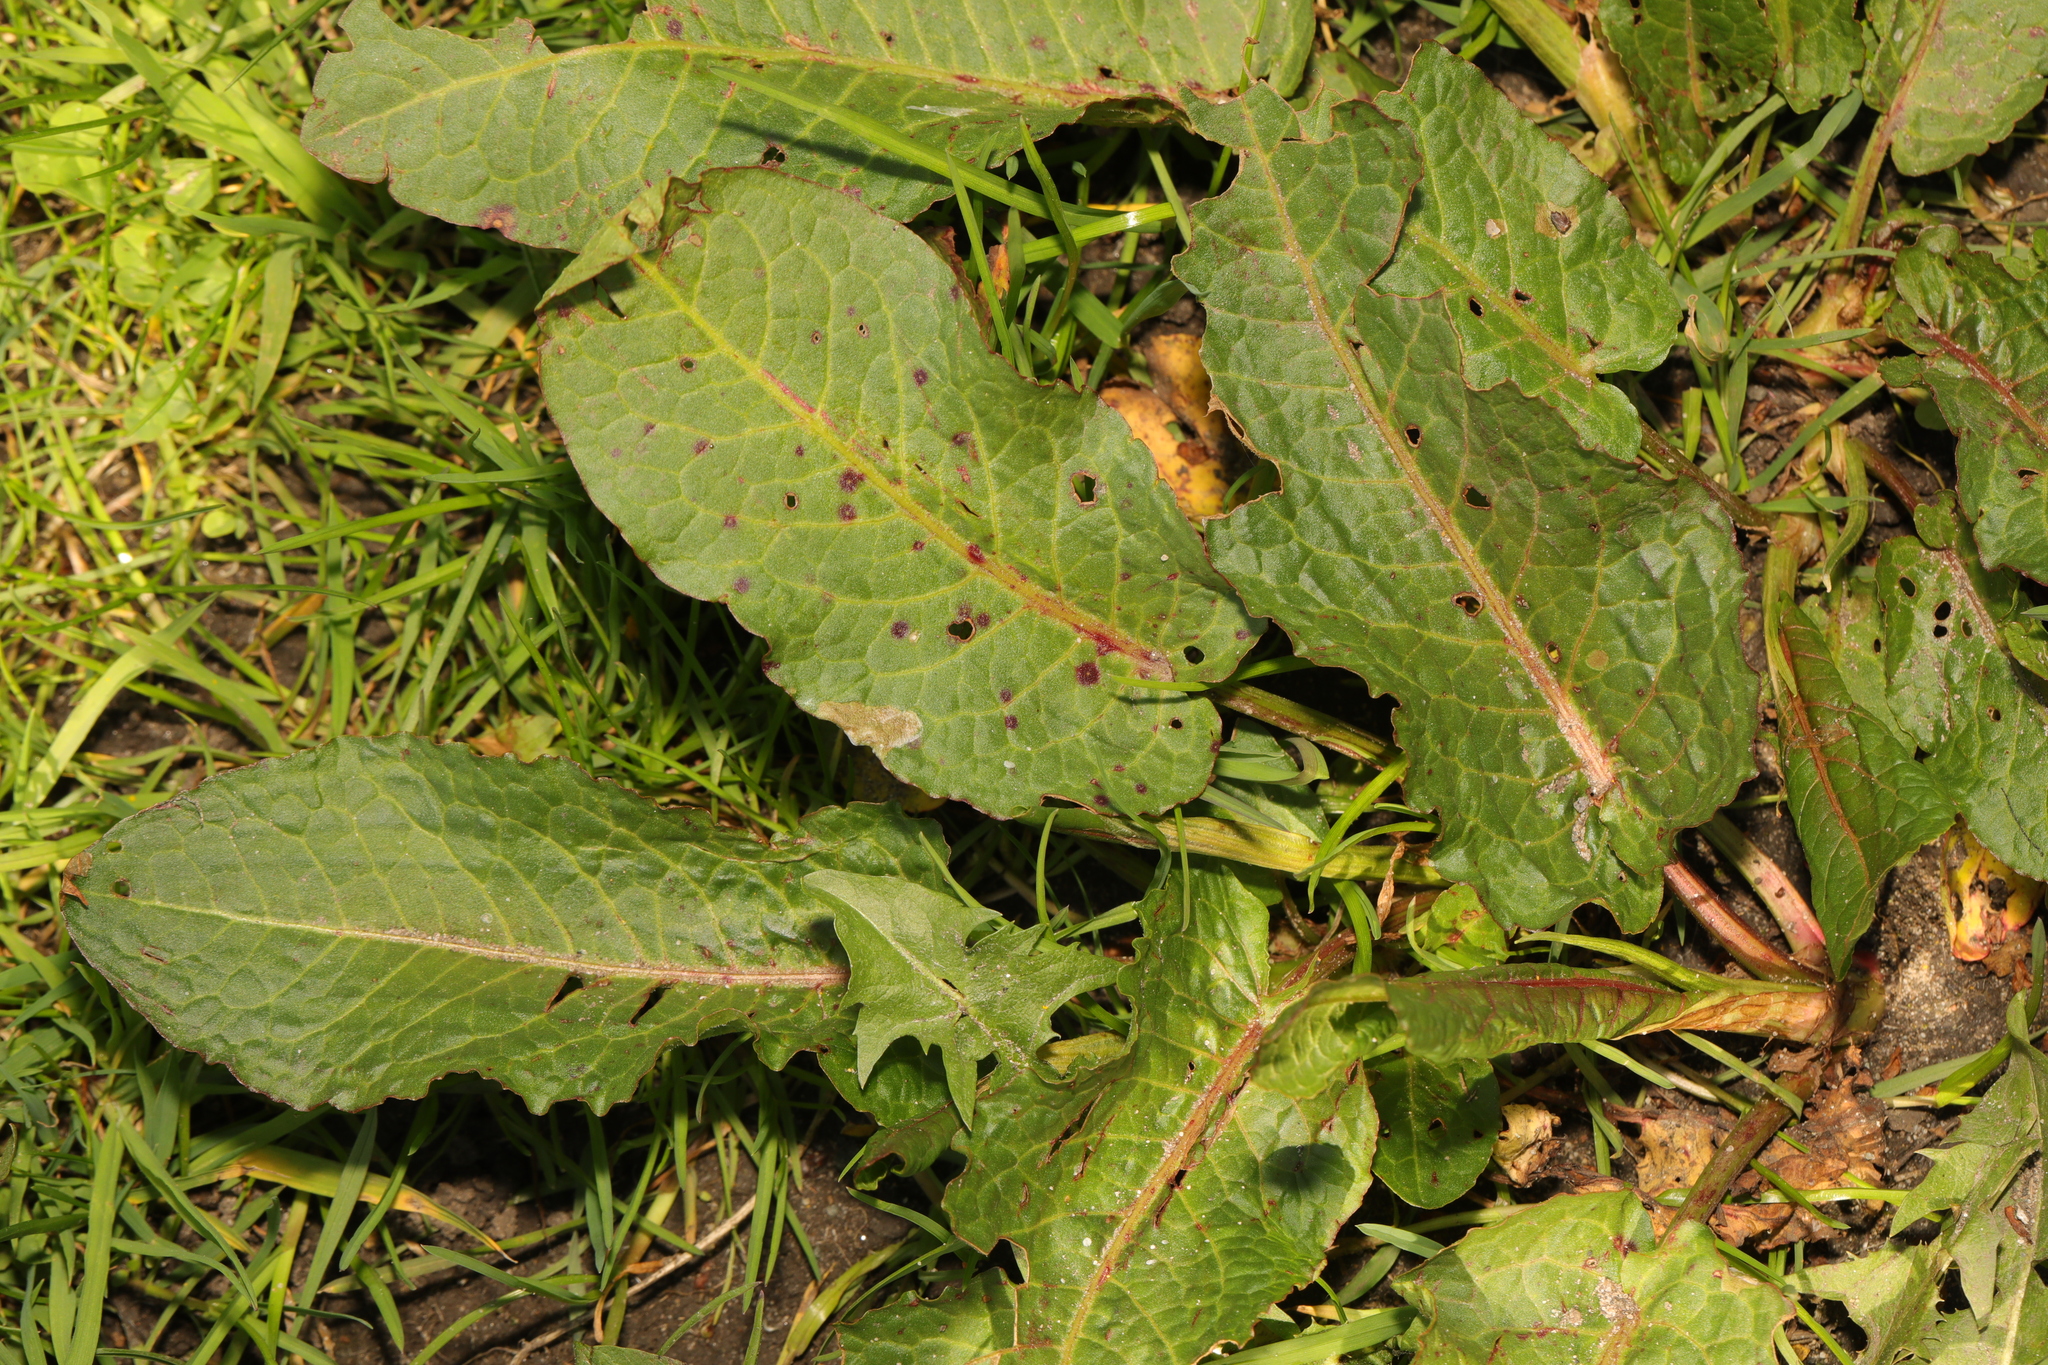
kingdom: Plantae
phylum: Tracheophyta
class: Magnoliopsida
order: Caryophyllales
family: Polygonaceae
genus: Rumex
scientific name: Rumex obtusifolius
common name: Bitter dock
